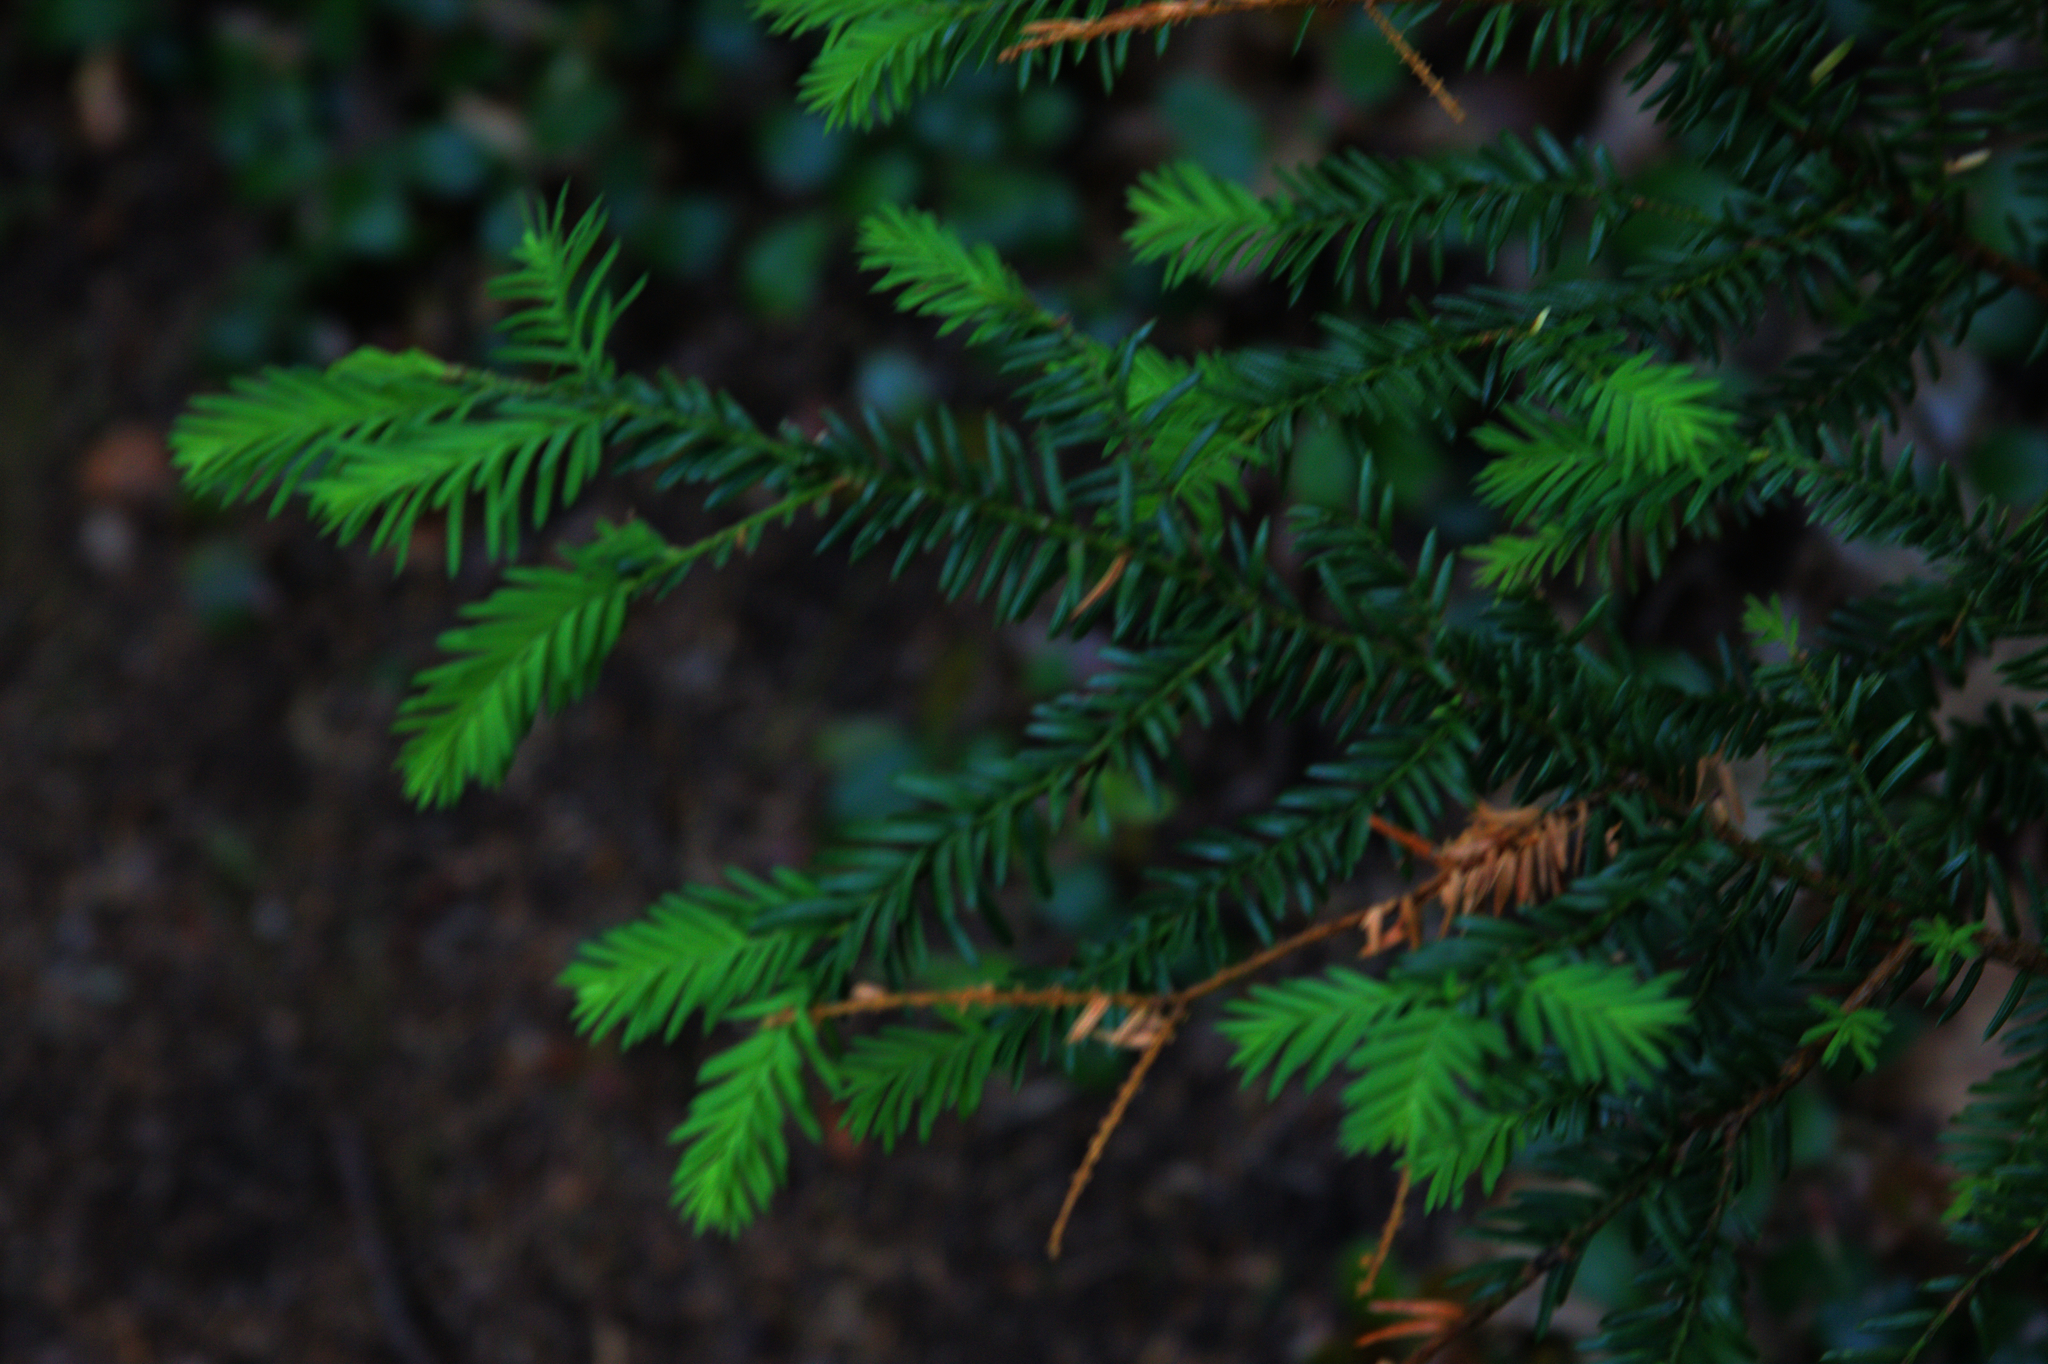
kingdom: Plantae
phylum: Tracheophyta
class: Pinopsida
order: Pinales
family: Taxaceae
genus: Taxus
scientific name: Taxus canadensis
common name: American yew
